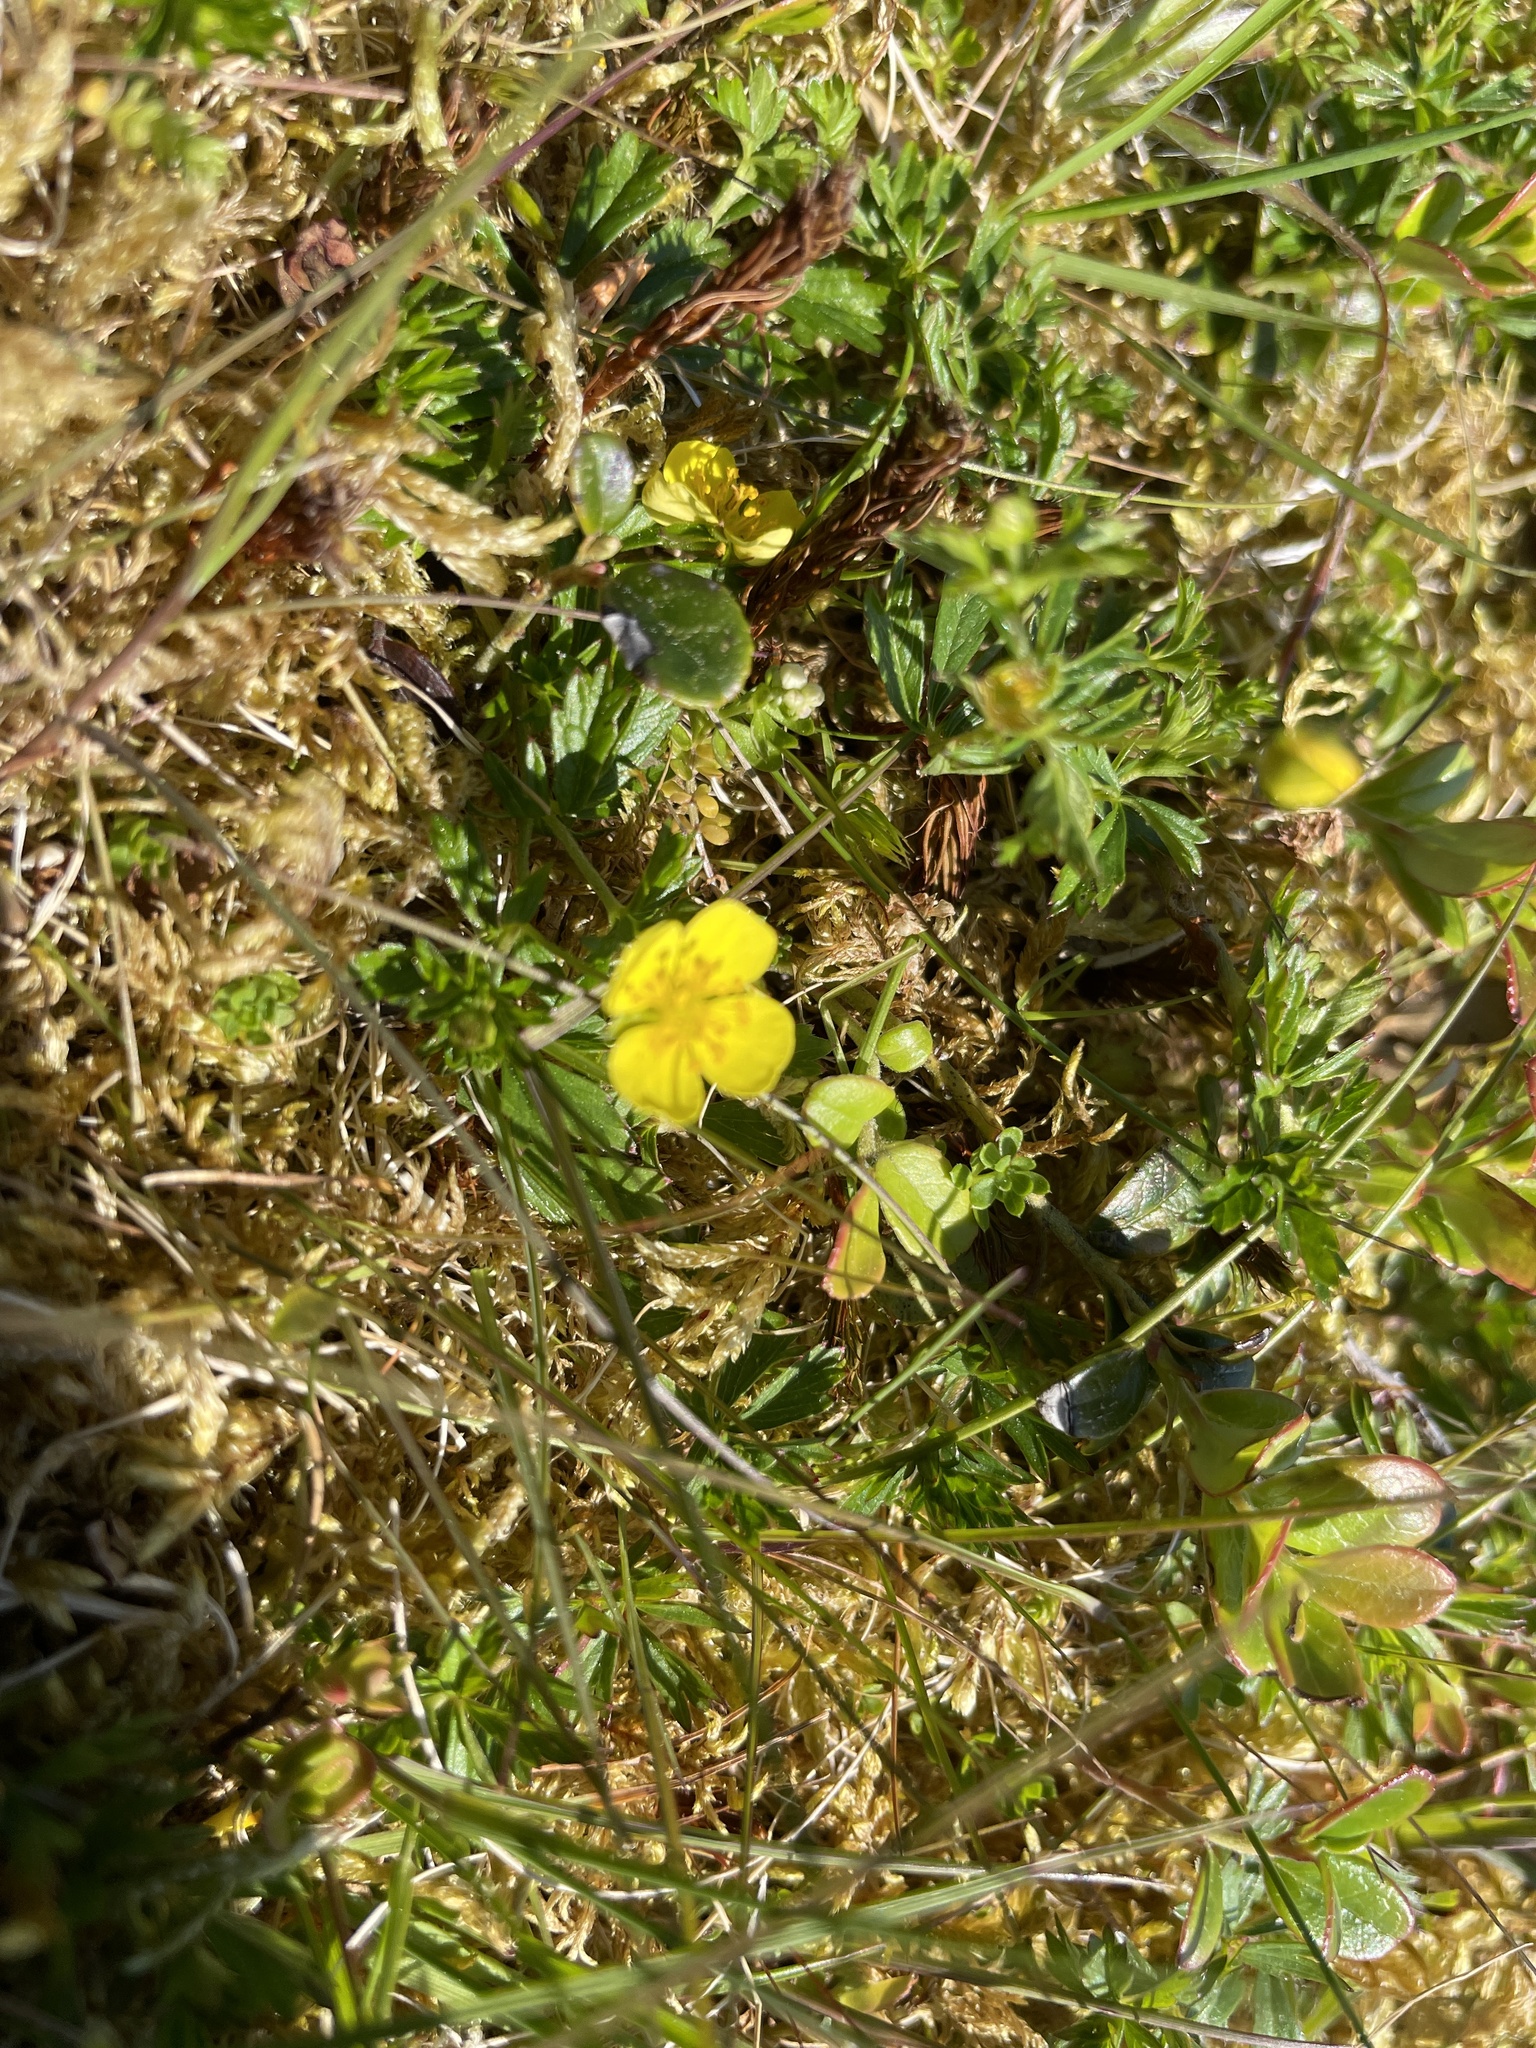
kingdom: Plantae
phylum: Tracheophyta
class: Magnoliopsida
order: Rosales
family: Rosaceae
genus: Potentilla
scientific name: Potentilla erecta
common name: Tormentil
